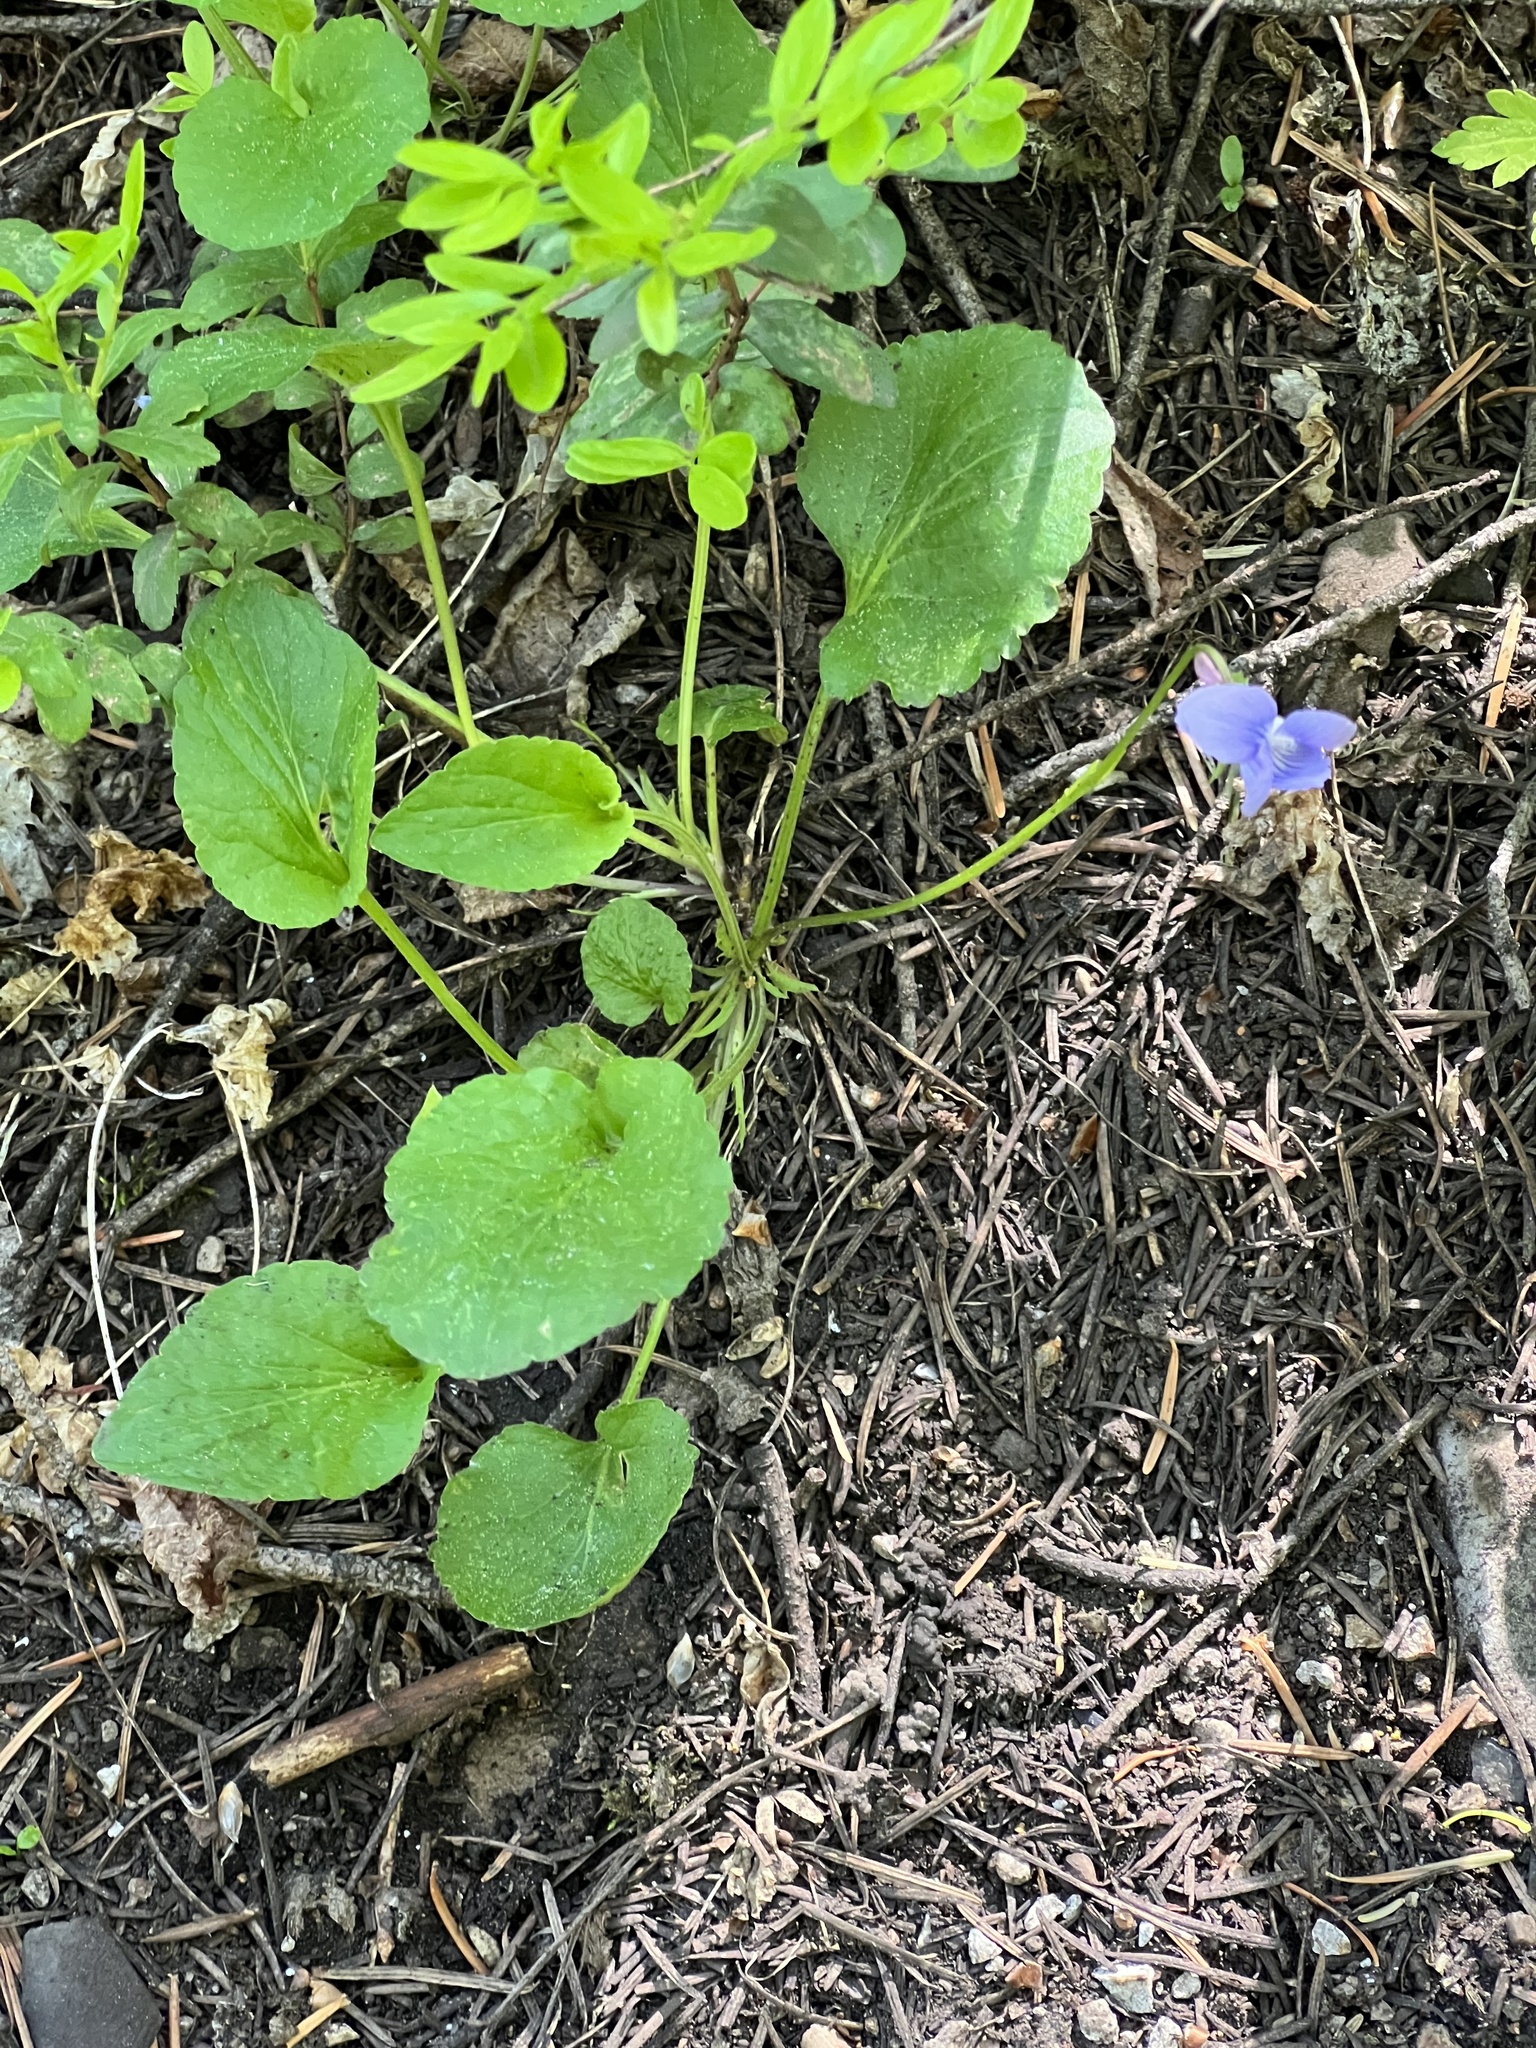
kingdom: Plantae
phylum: Tracheophyta
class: Magnoliopsida
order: Malpighiales
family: Violaceae
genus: Viola
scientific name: Viola adunca
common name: Sand violet
